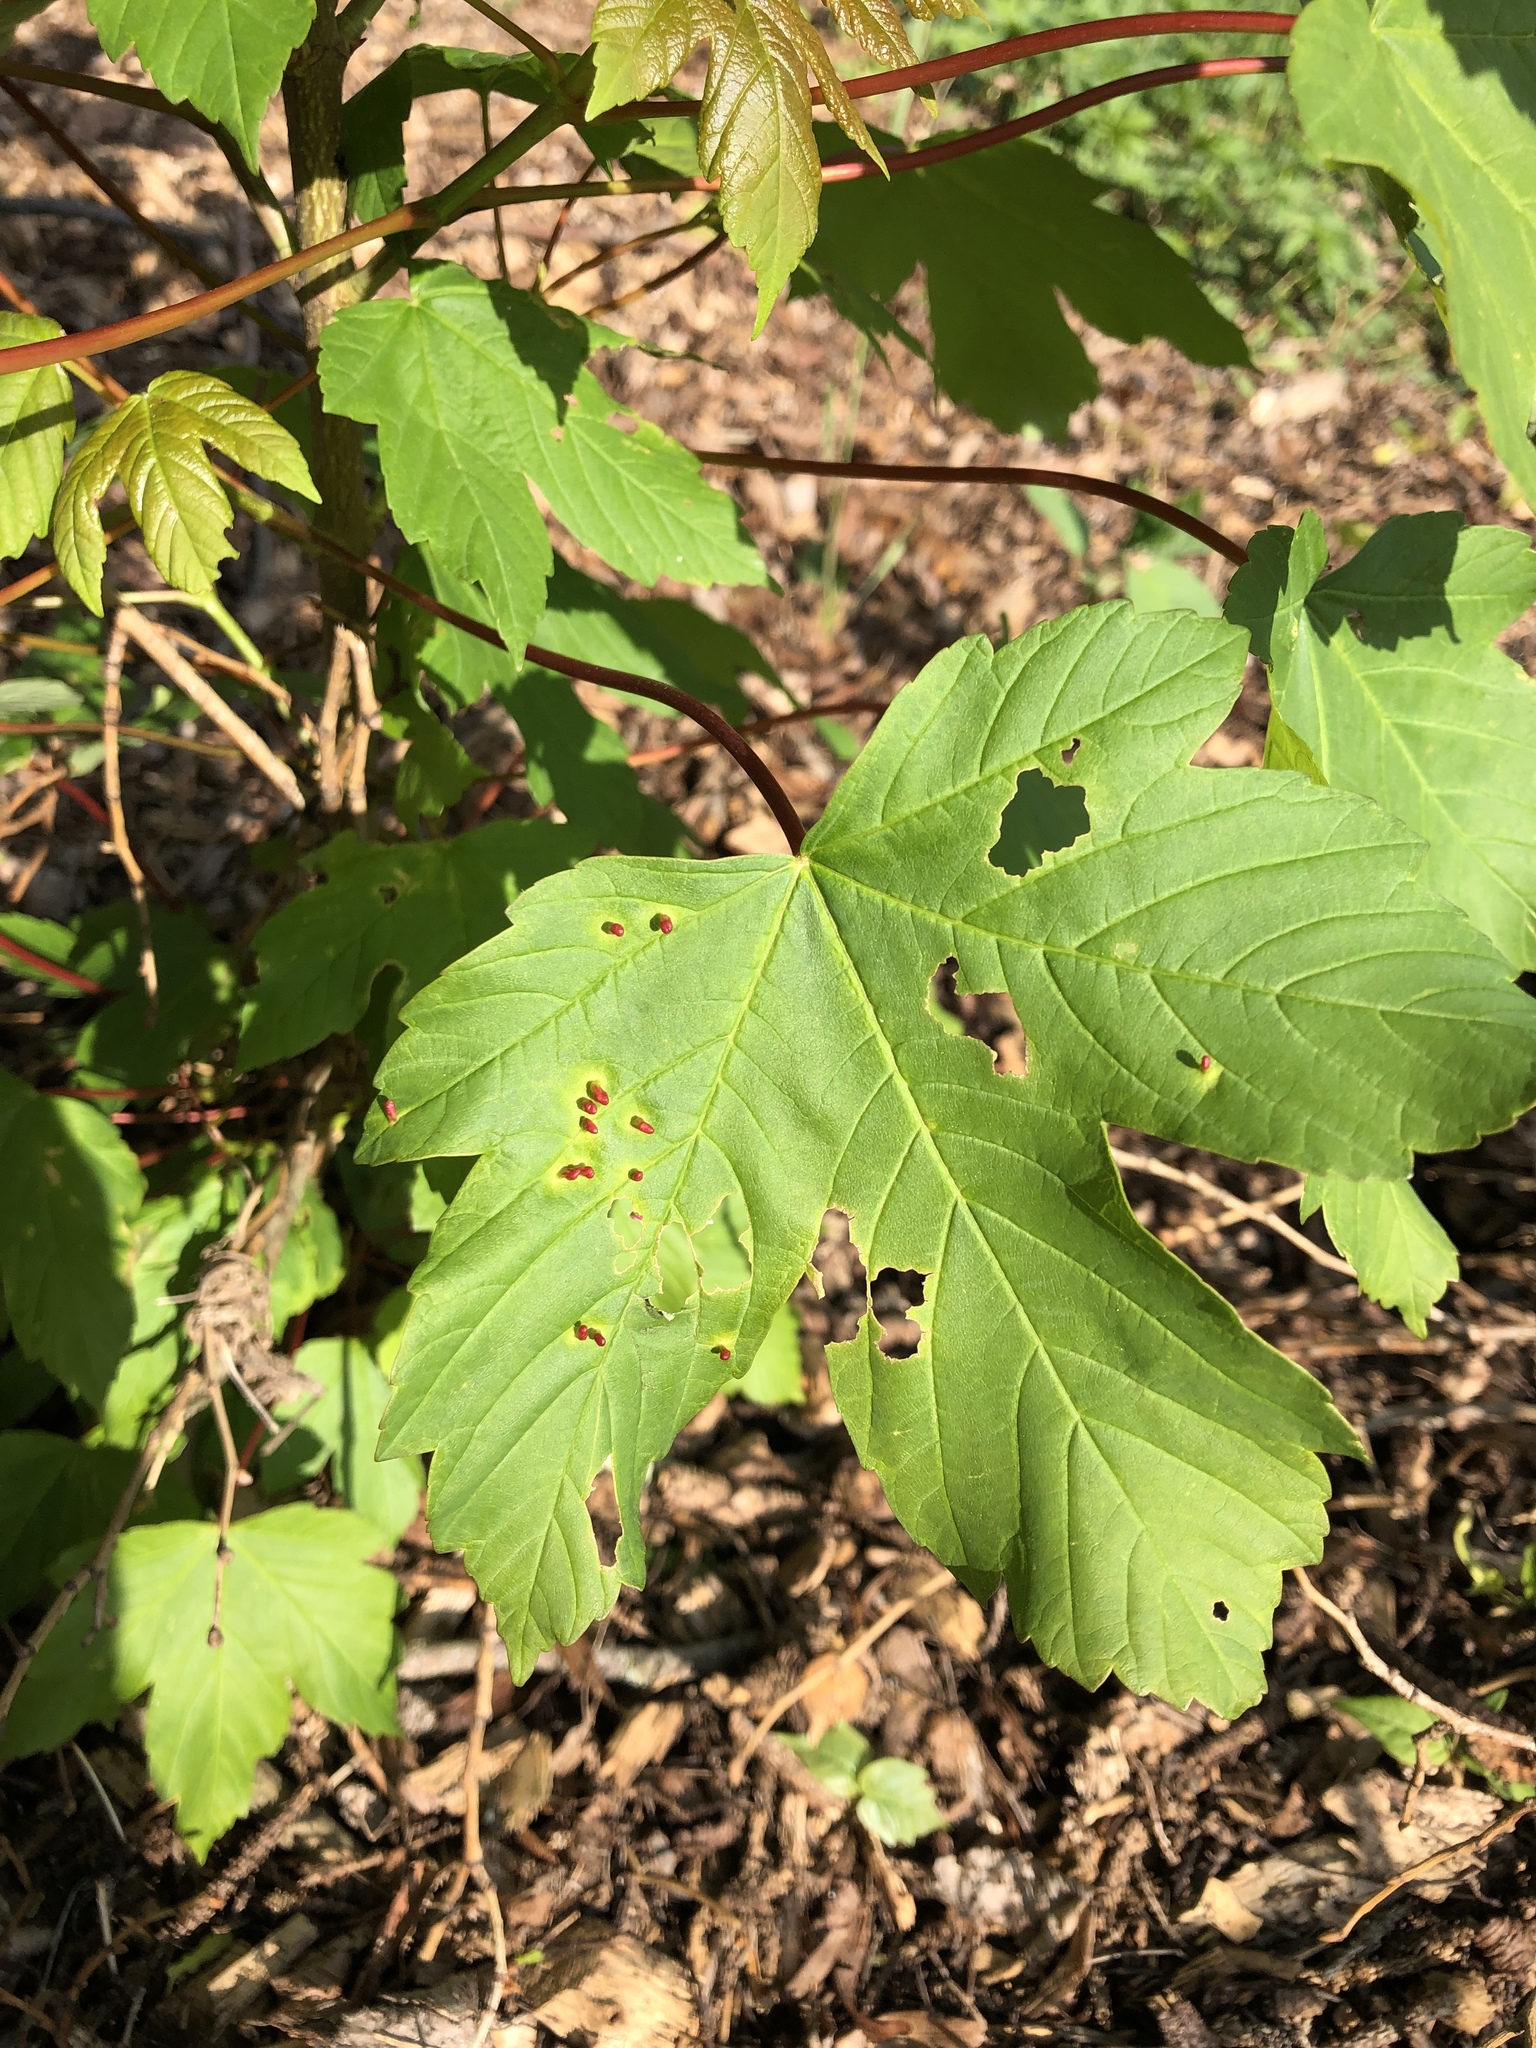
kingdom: Animalia
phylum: Arthropoda
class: Arachnida
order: Trombidiformes
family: Eriophyidae
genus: Aceria
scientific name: Aceria myriadeum
